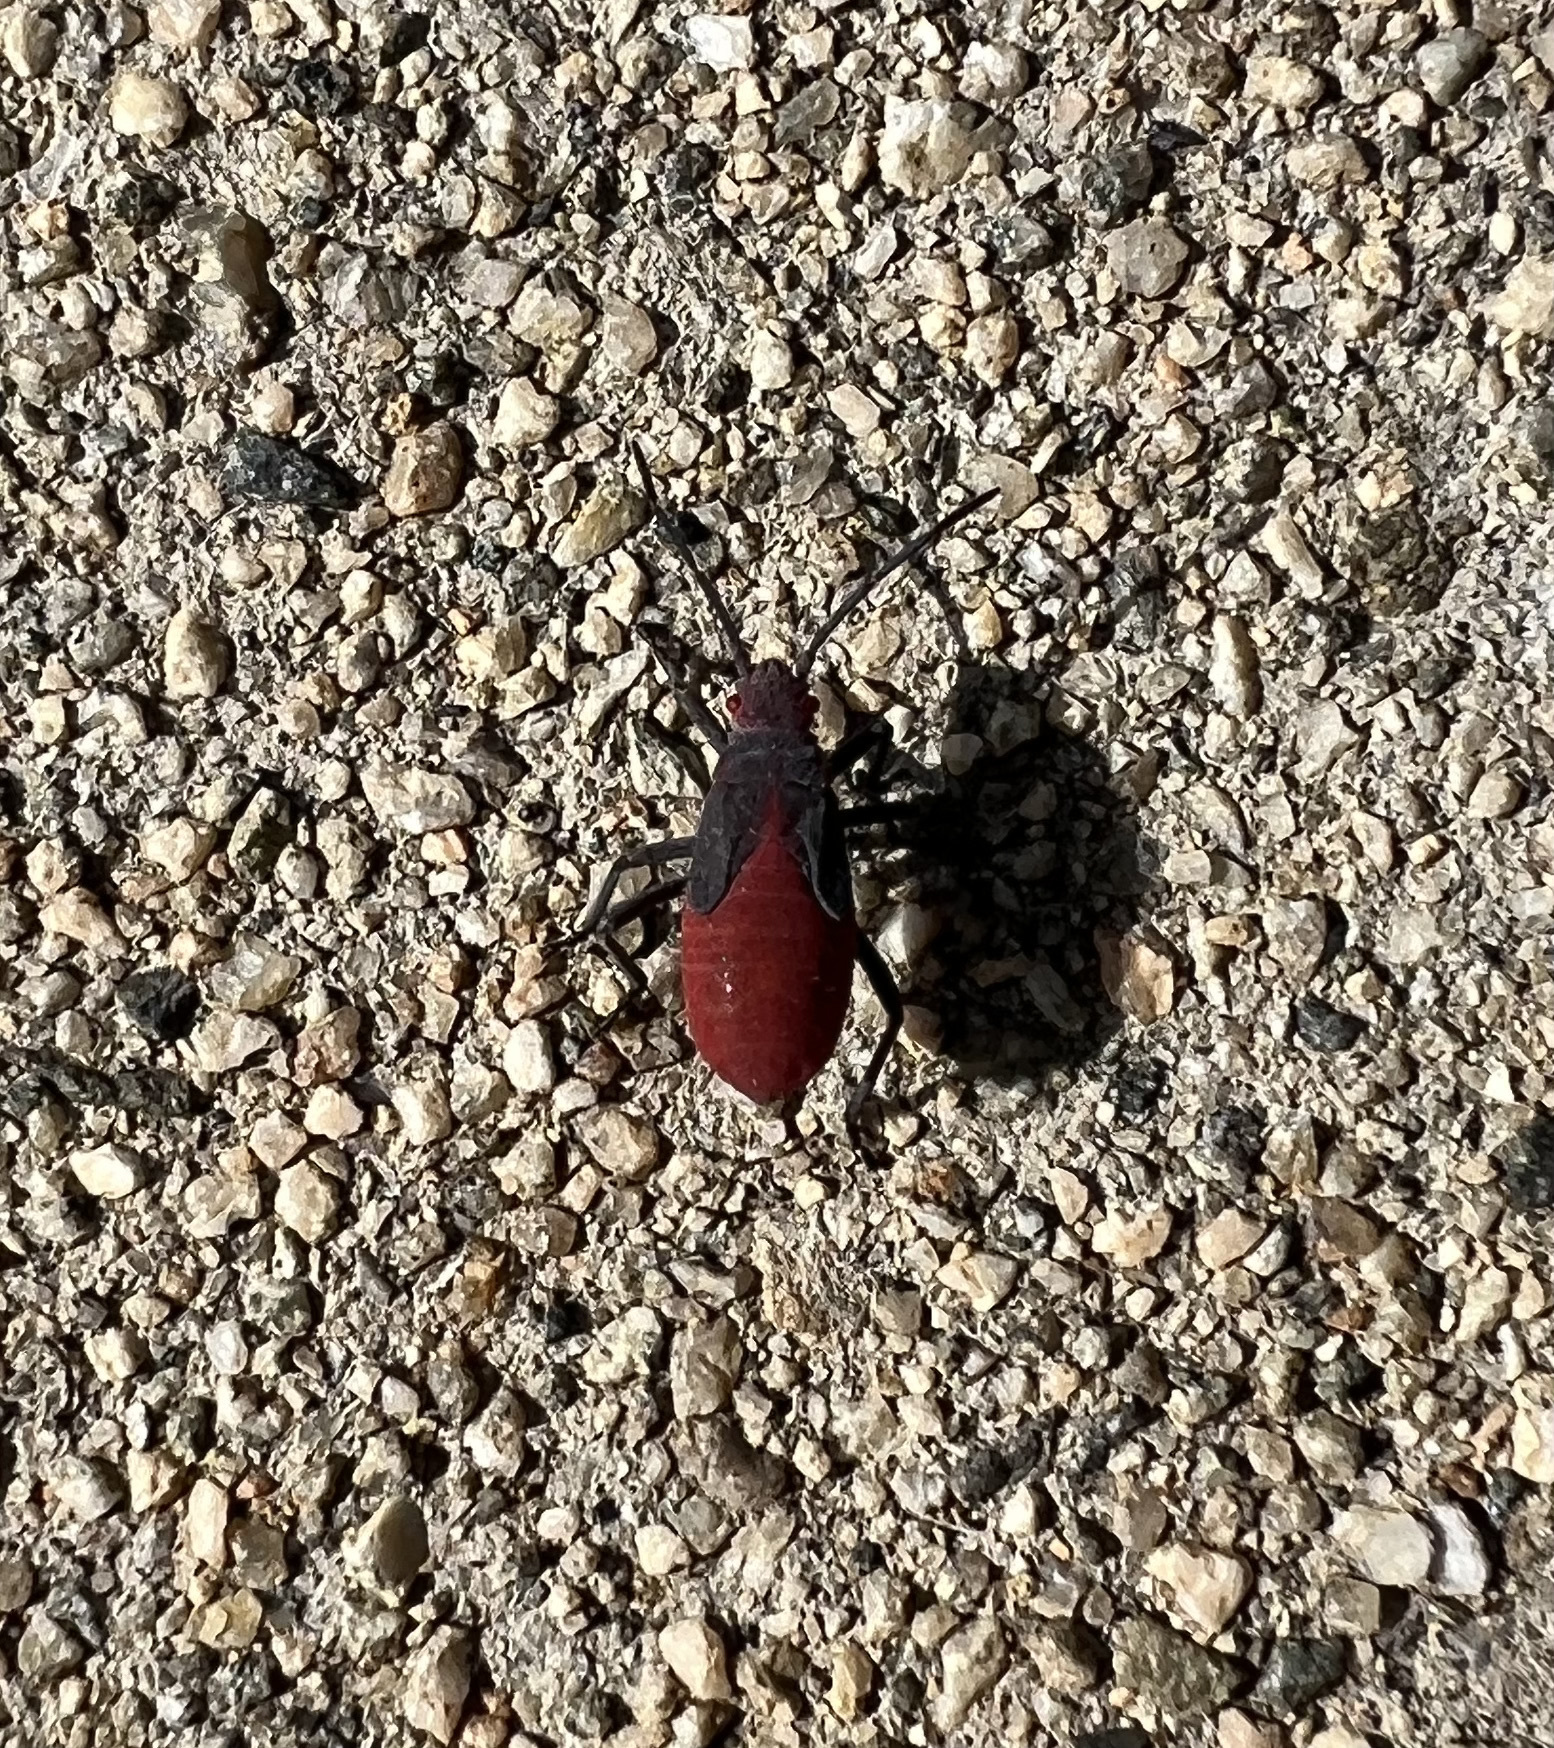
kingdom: Animalia
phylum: Arthropoda
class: Insecta
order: Hemiptera
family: Rhopalidae
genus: Jadera
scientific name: Jadera haematoloma
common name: Red-shouldered bug
